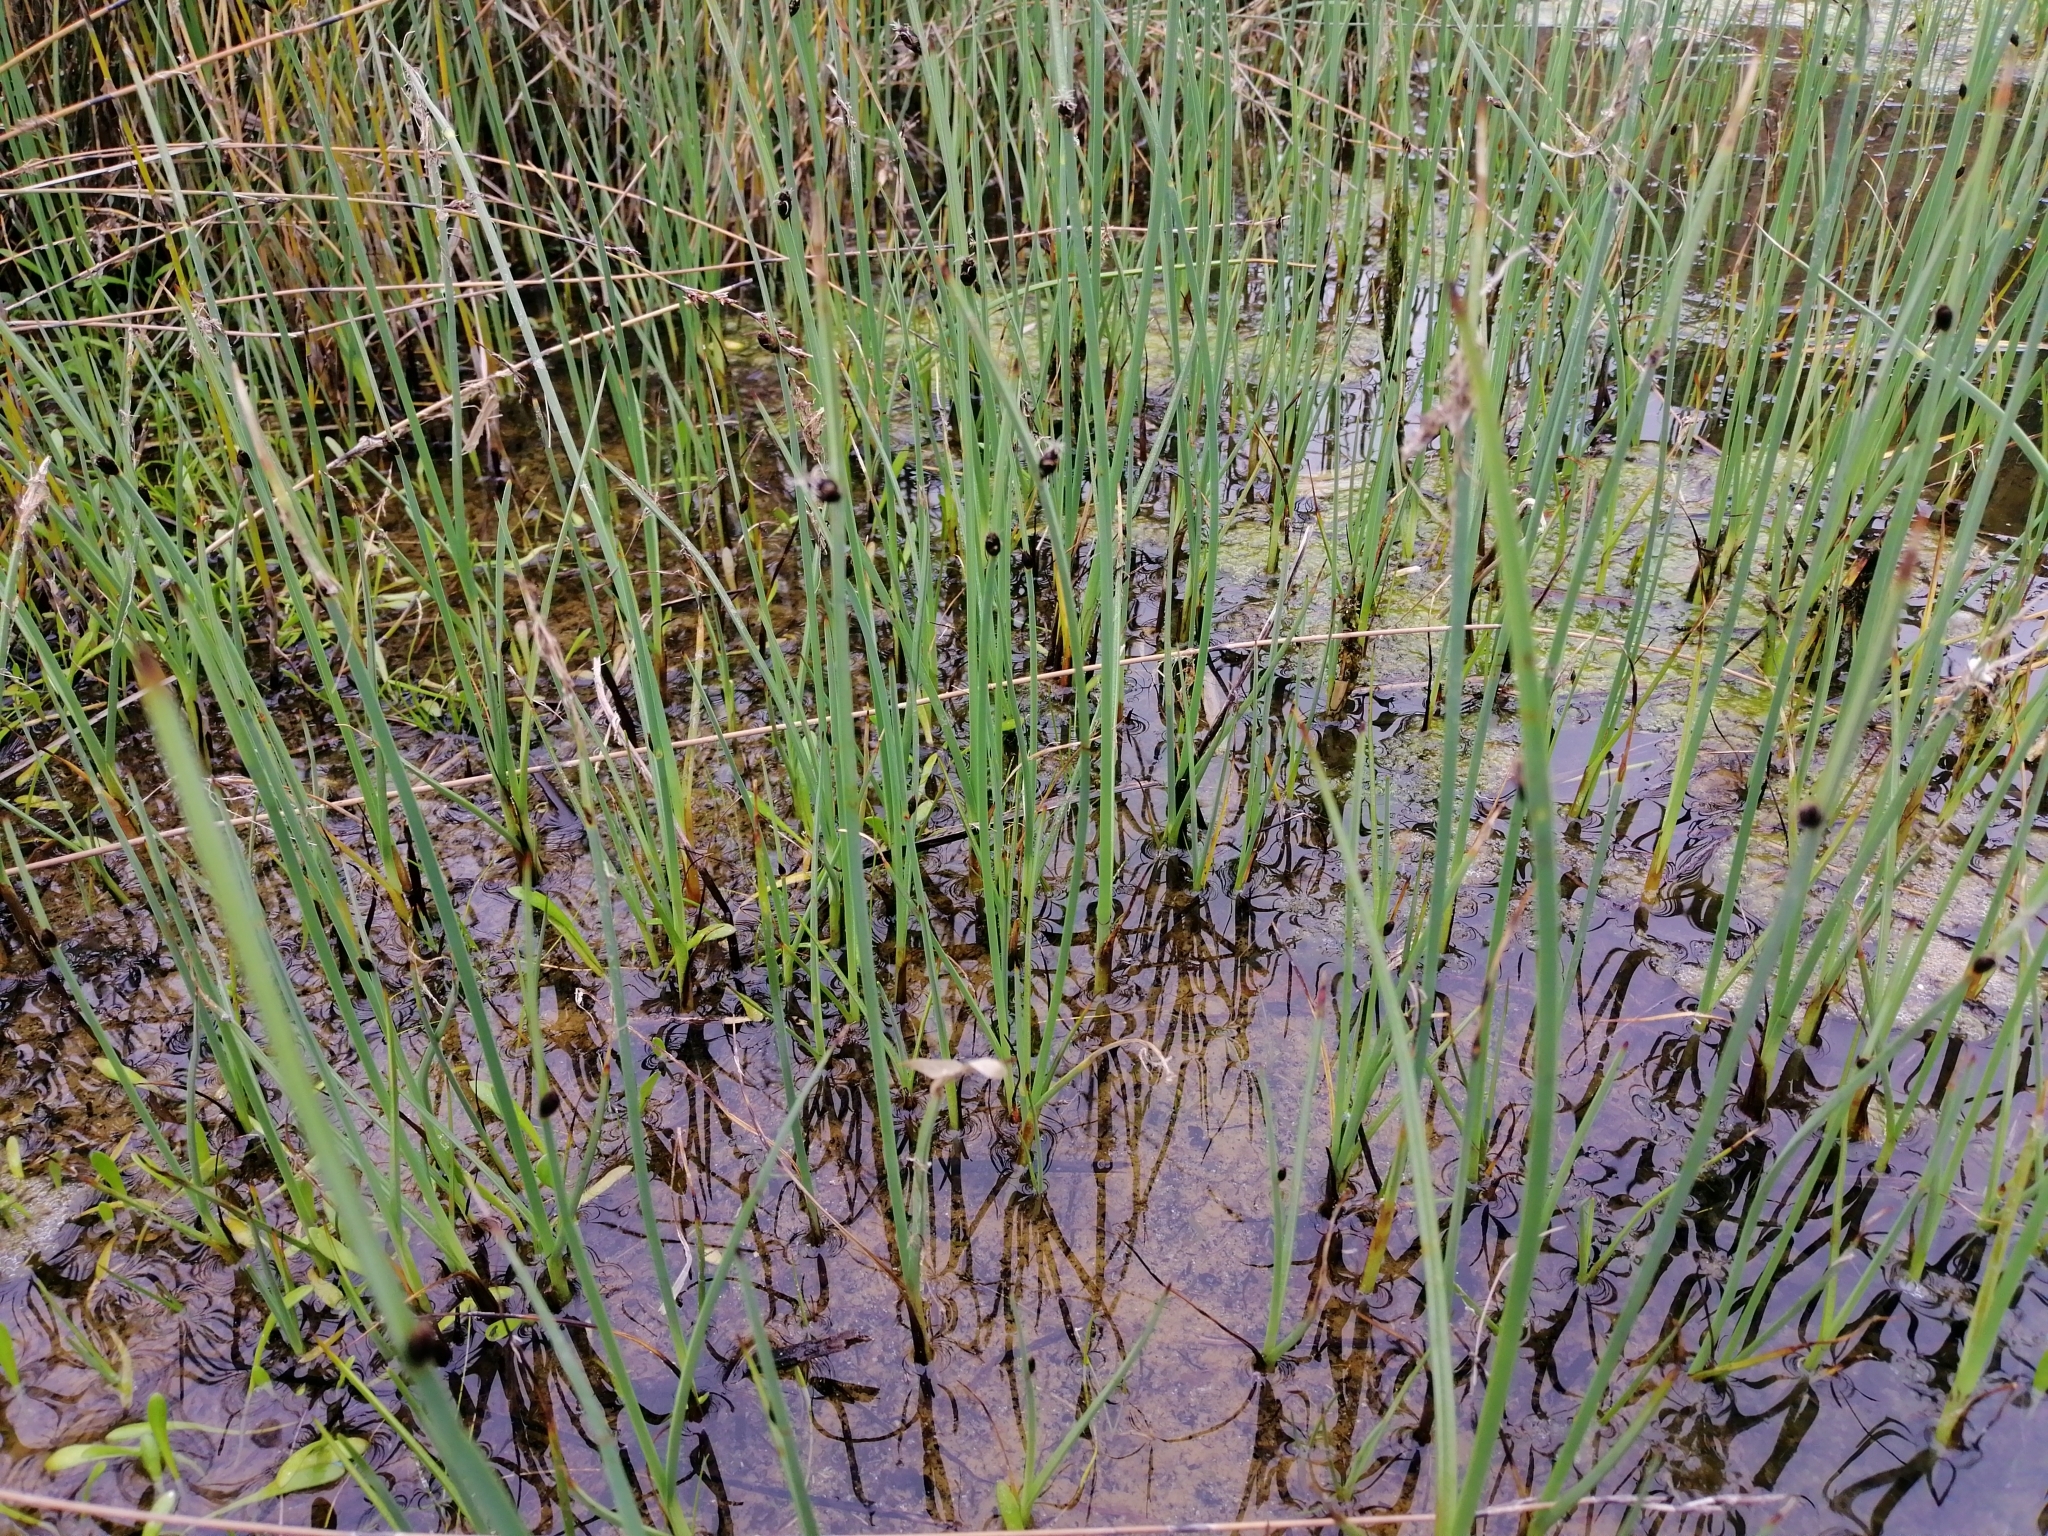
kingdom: Plantae
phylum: Tracheophyta
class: Liliopsida
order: Poales
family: Cyperaceae
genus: Schoenoplectus
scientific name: Schoenoplectus pungens
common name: Sharp club-rush
